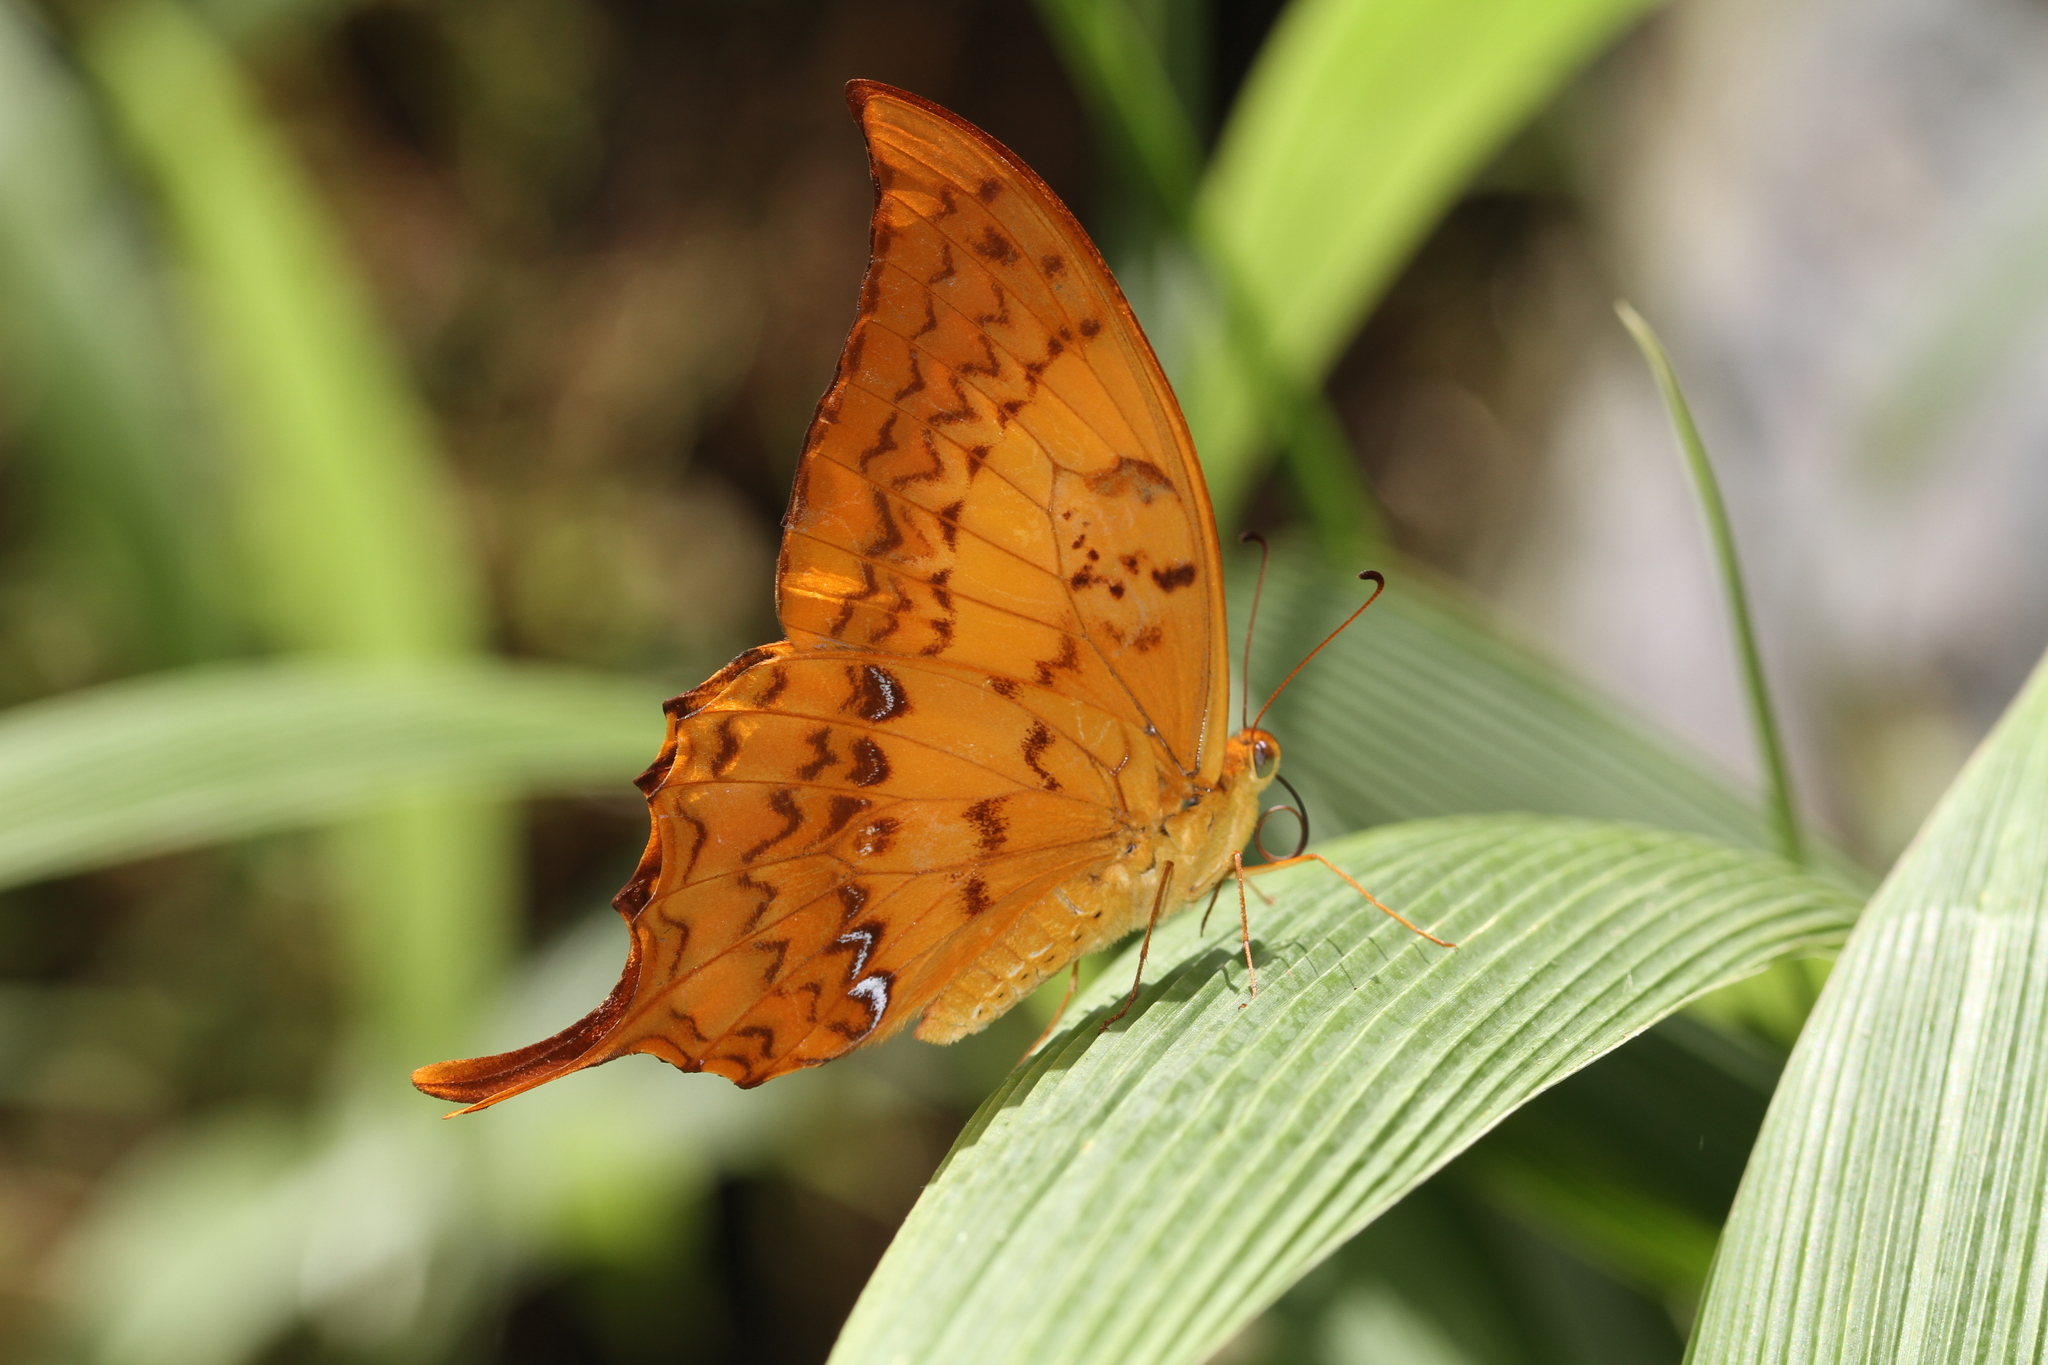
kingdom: Animalia
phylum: Arthropoda
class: Insecta
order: Lepidoptera
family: Papilionidae
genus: Meandrusa
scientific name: Meandrusa payeni
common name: Outlet sword
